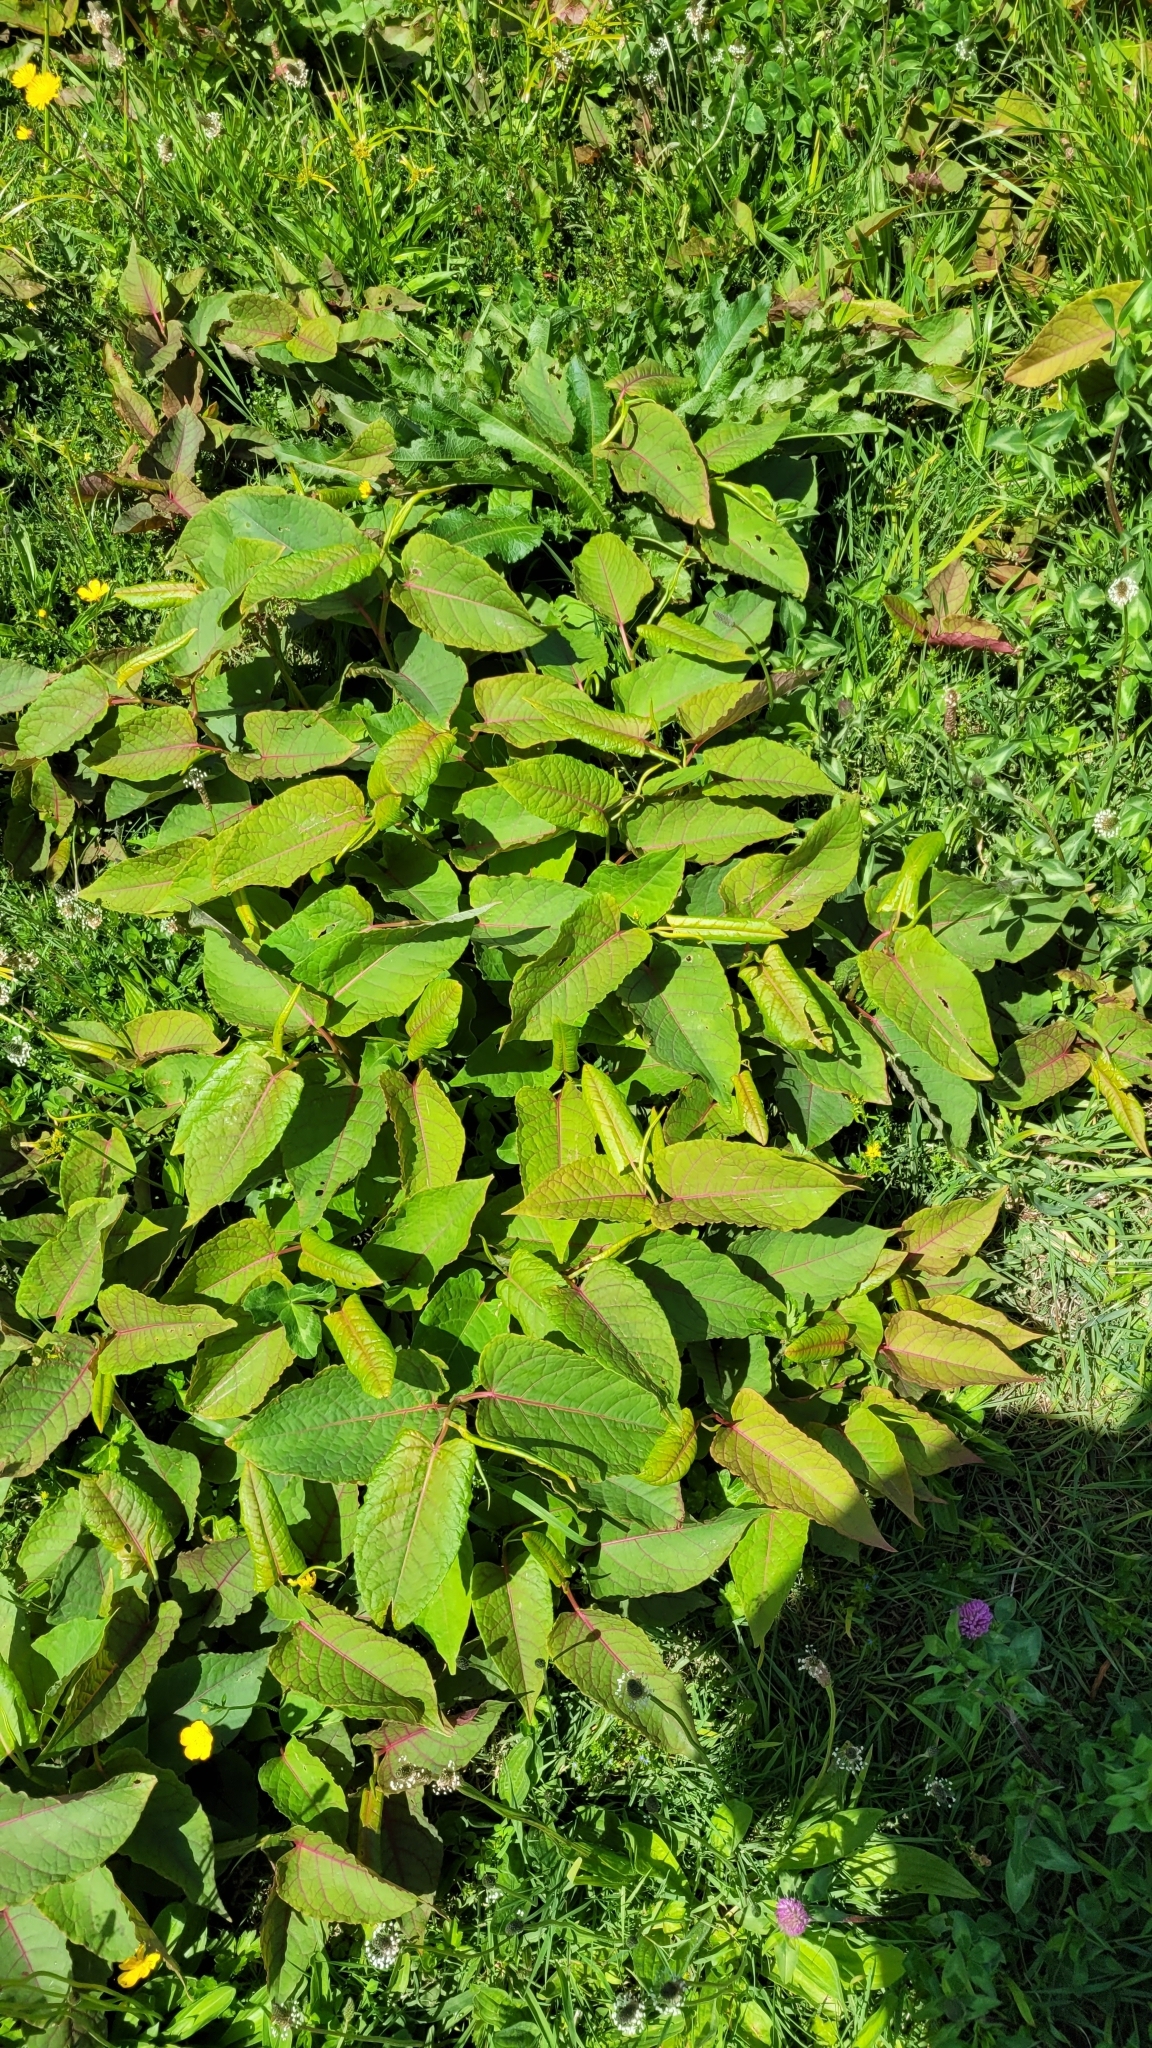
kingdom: Plantae
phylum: Tracheophyta
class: Magnoliopsida
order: Caryophyllales
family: Polygonaceae
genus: Reynoutria
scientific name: Reynoutria japonica
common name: Japanese knotweed
